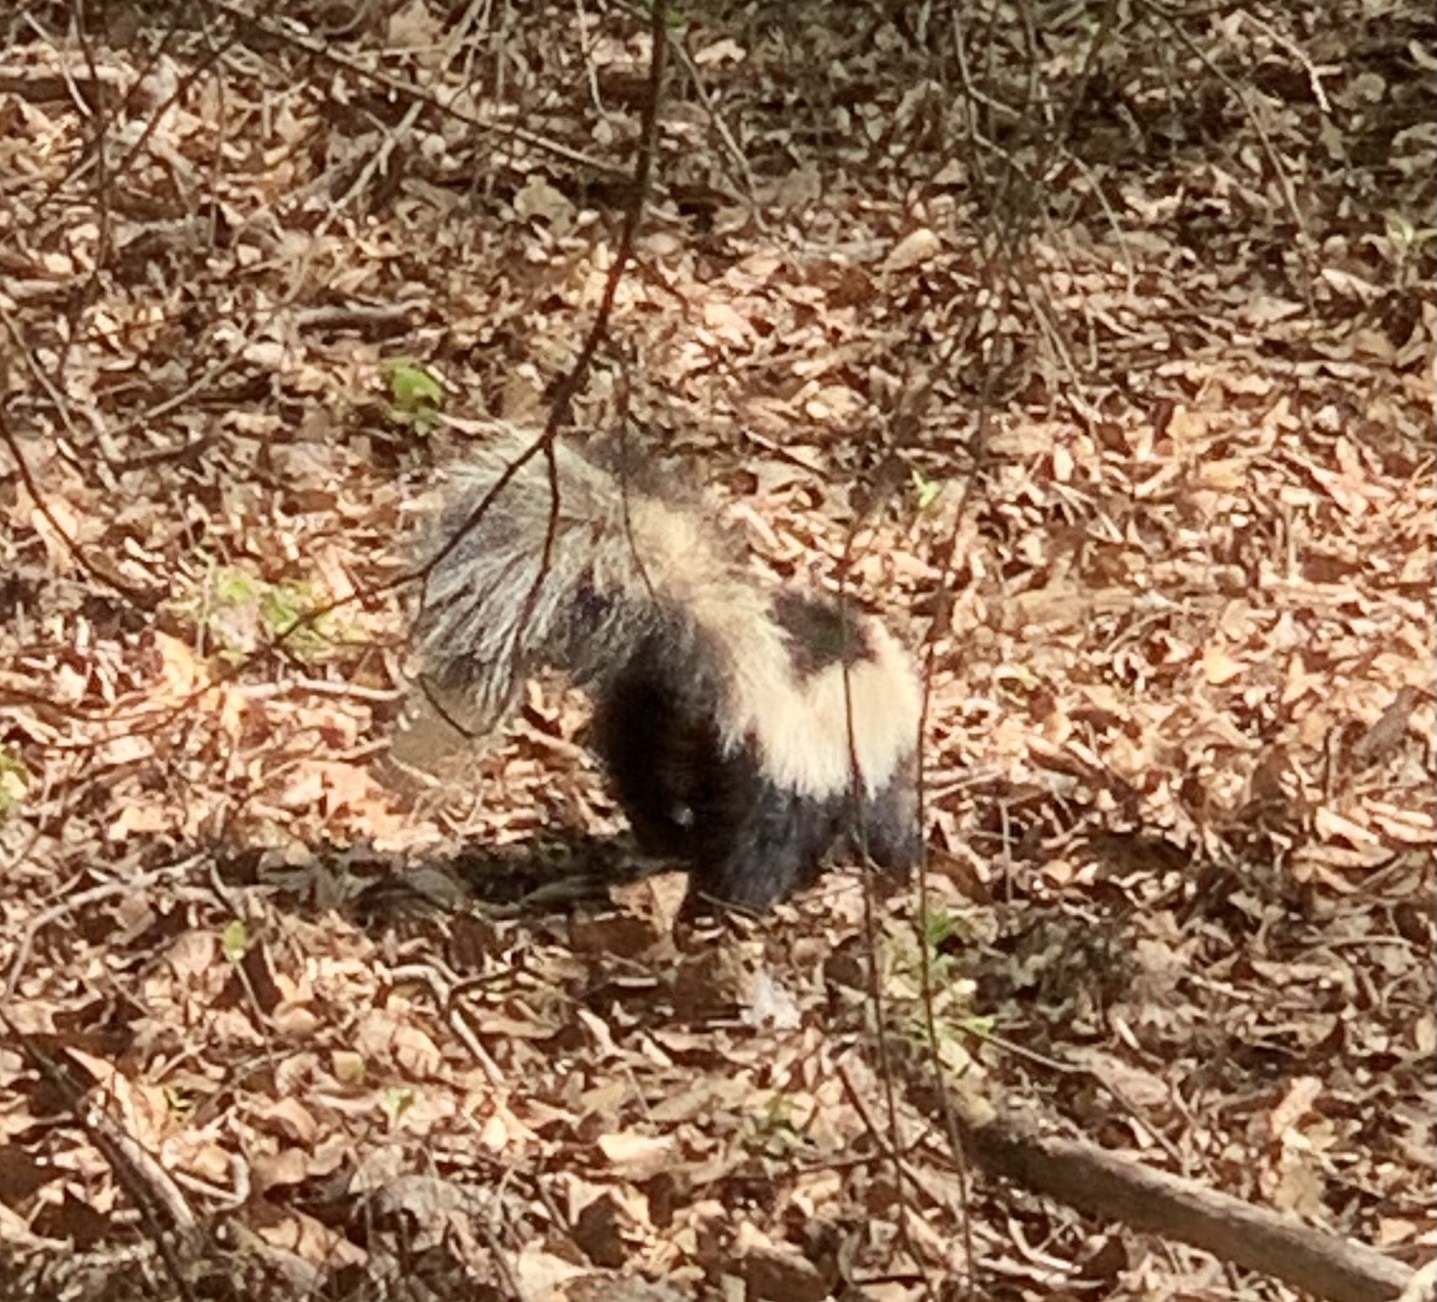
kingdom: Animalia
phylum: Chordata
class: Mammalia
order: Carnivora
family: Mephitidae
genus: Mephitis
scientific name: Mephitis mephitis
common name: Striped skunk
